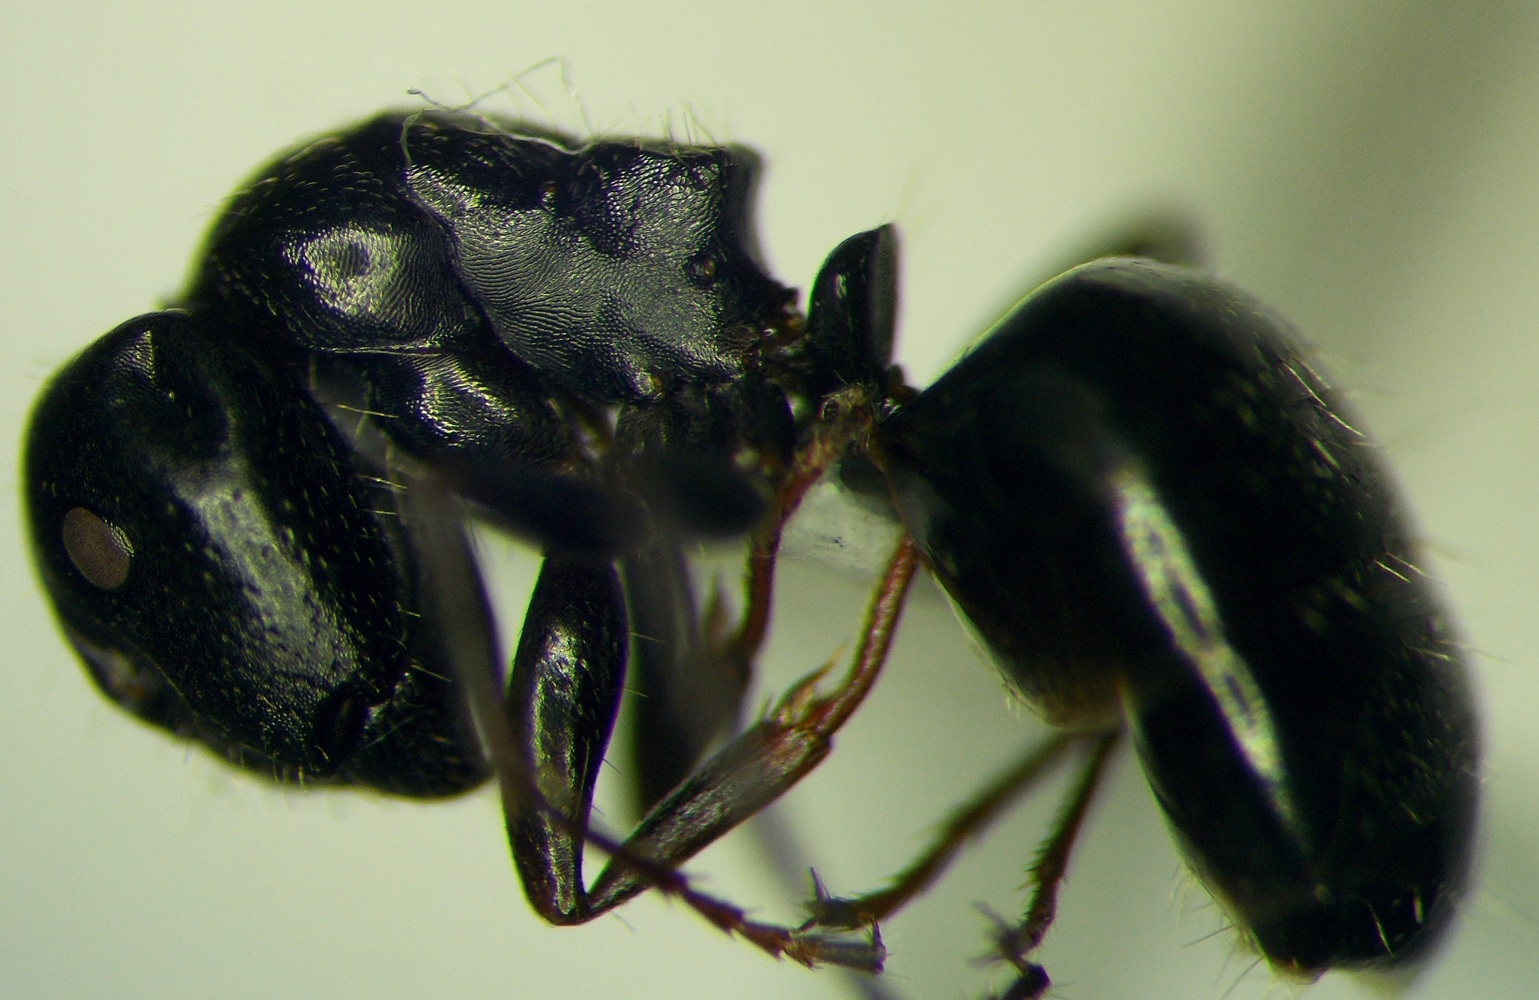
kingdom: Animalia
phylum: Arthropoda
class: Insecta
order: Hymenoptera
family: Formicidae
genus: Camponotus
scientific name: Camponotus piceus
